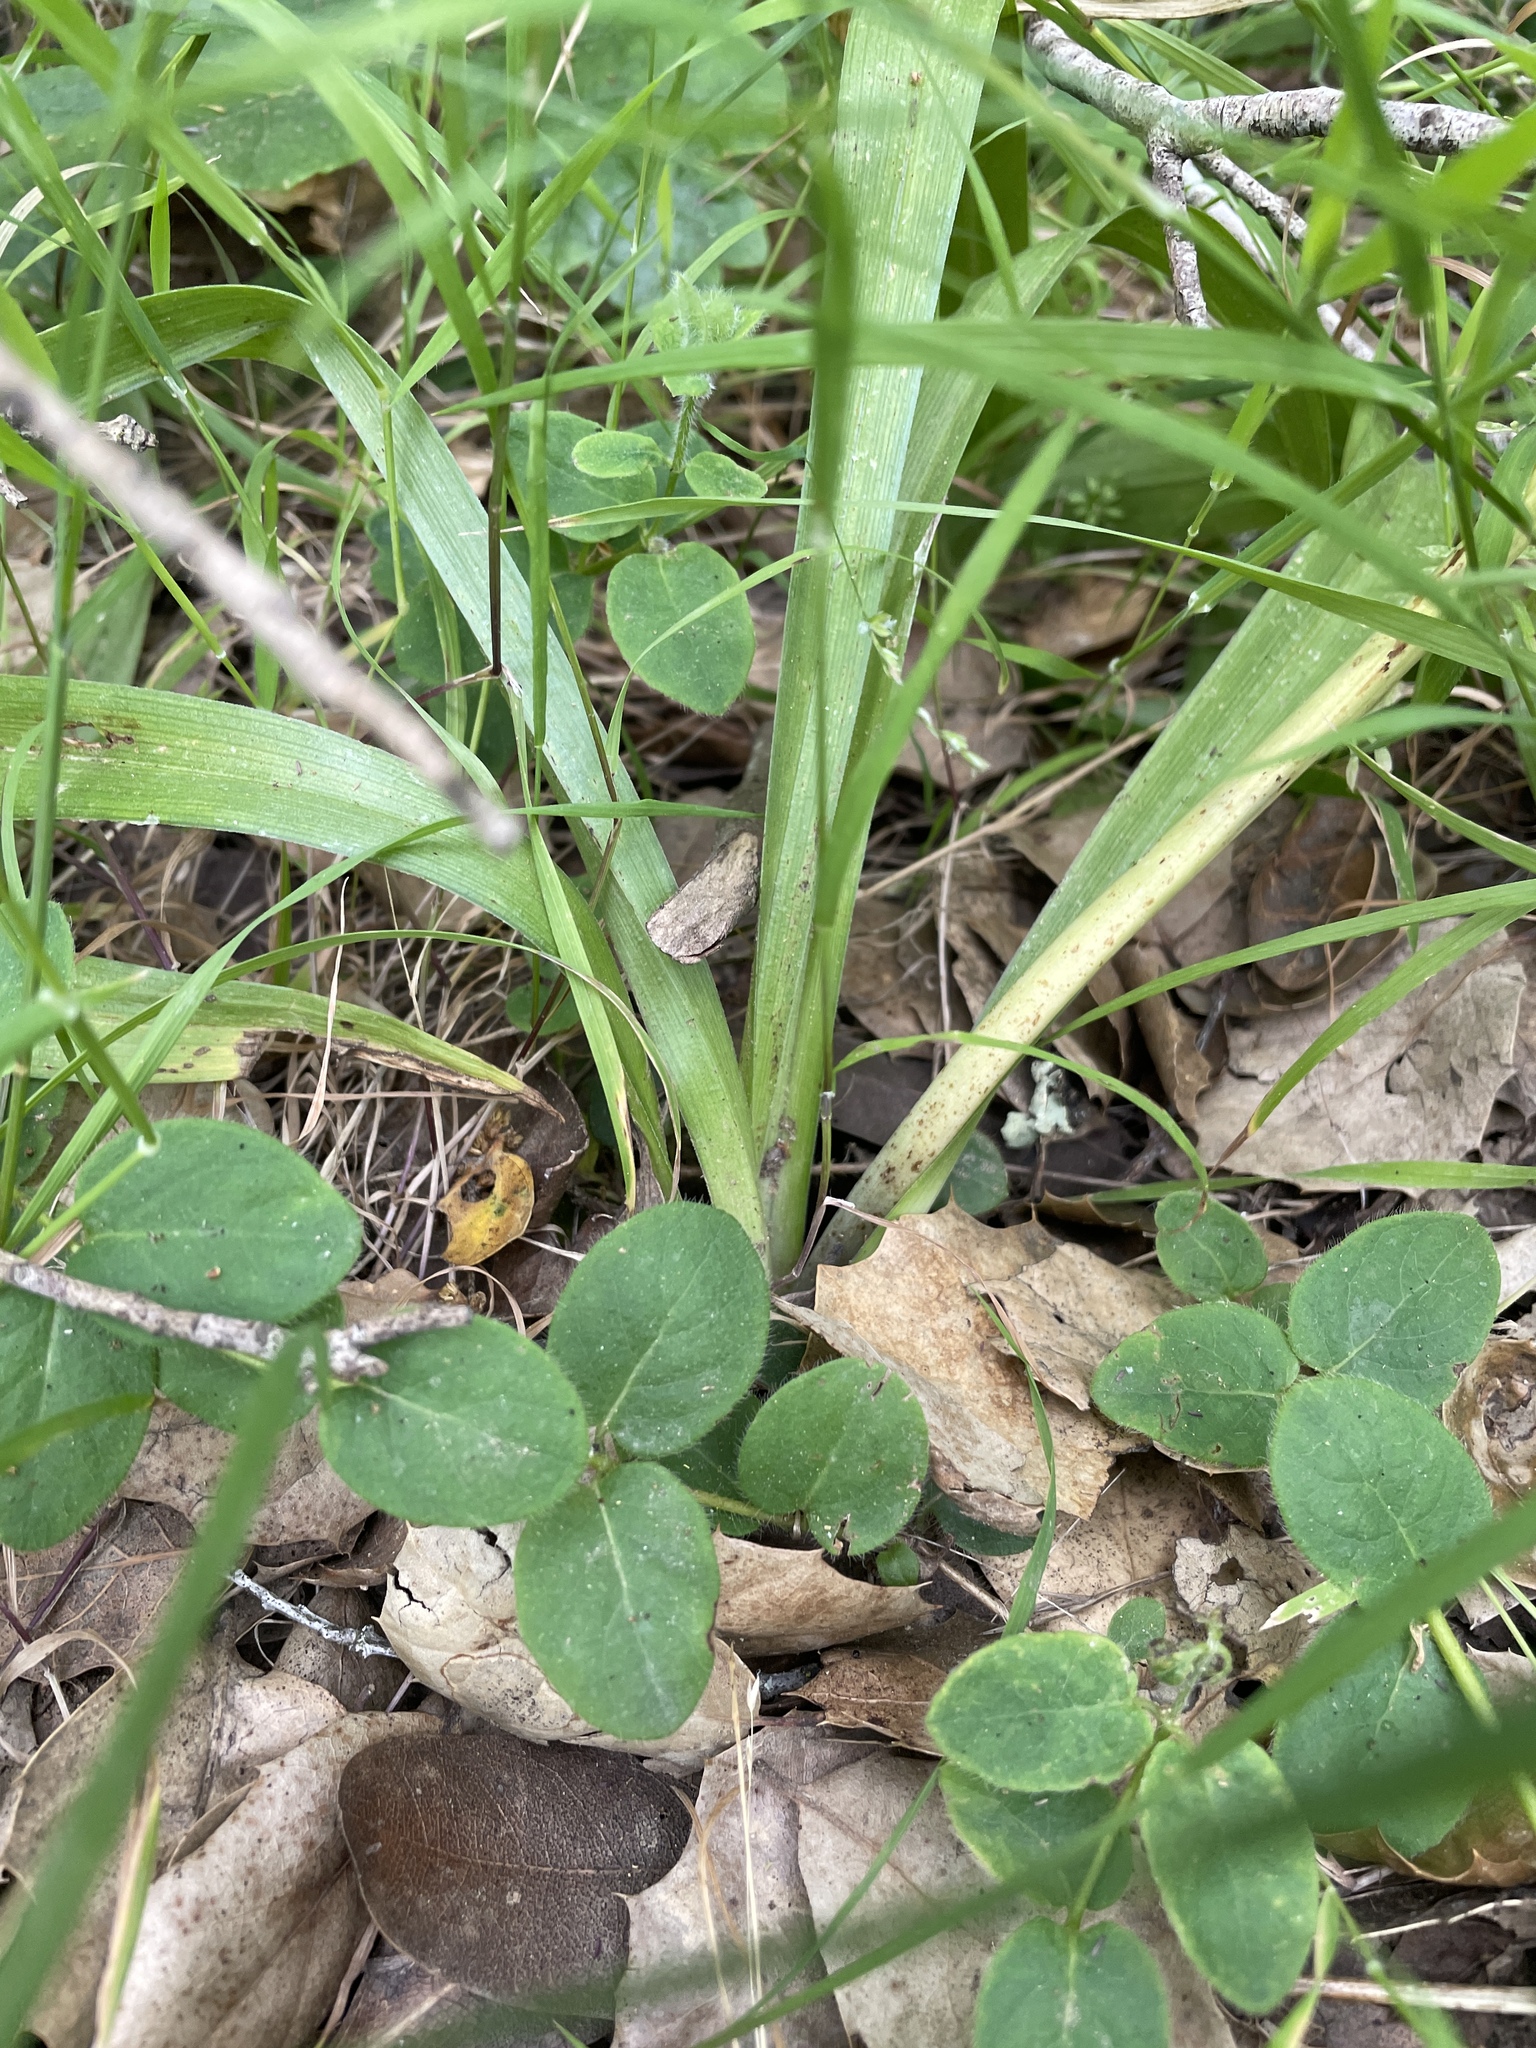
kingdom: Plantae
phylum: Tracheophyta
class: Liliopsida
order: Liliales
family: Melanthiaceae
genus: Toxicoscordion
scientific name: Toxicoscordion fremontii
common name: Fremont's death camas
